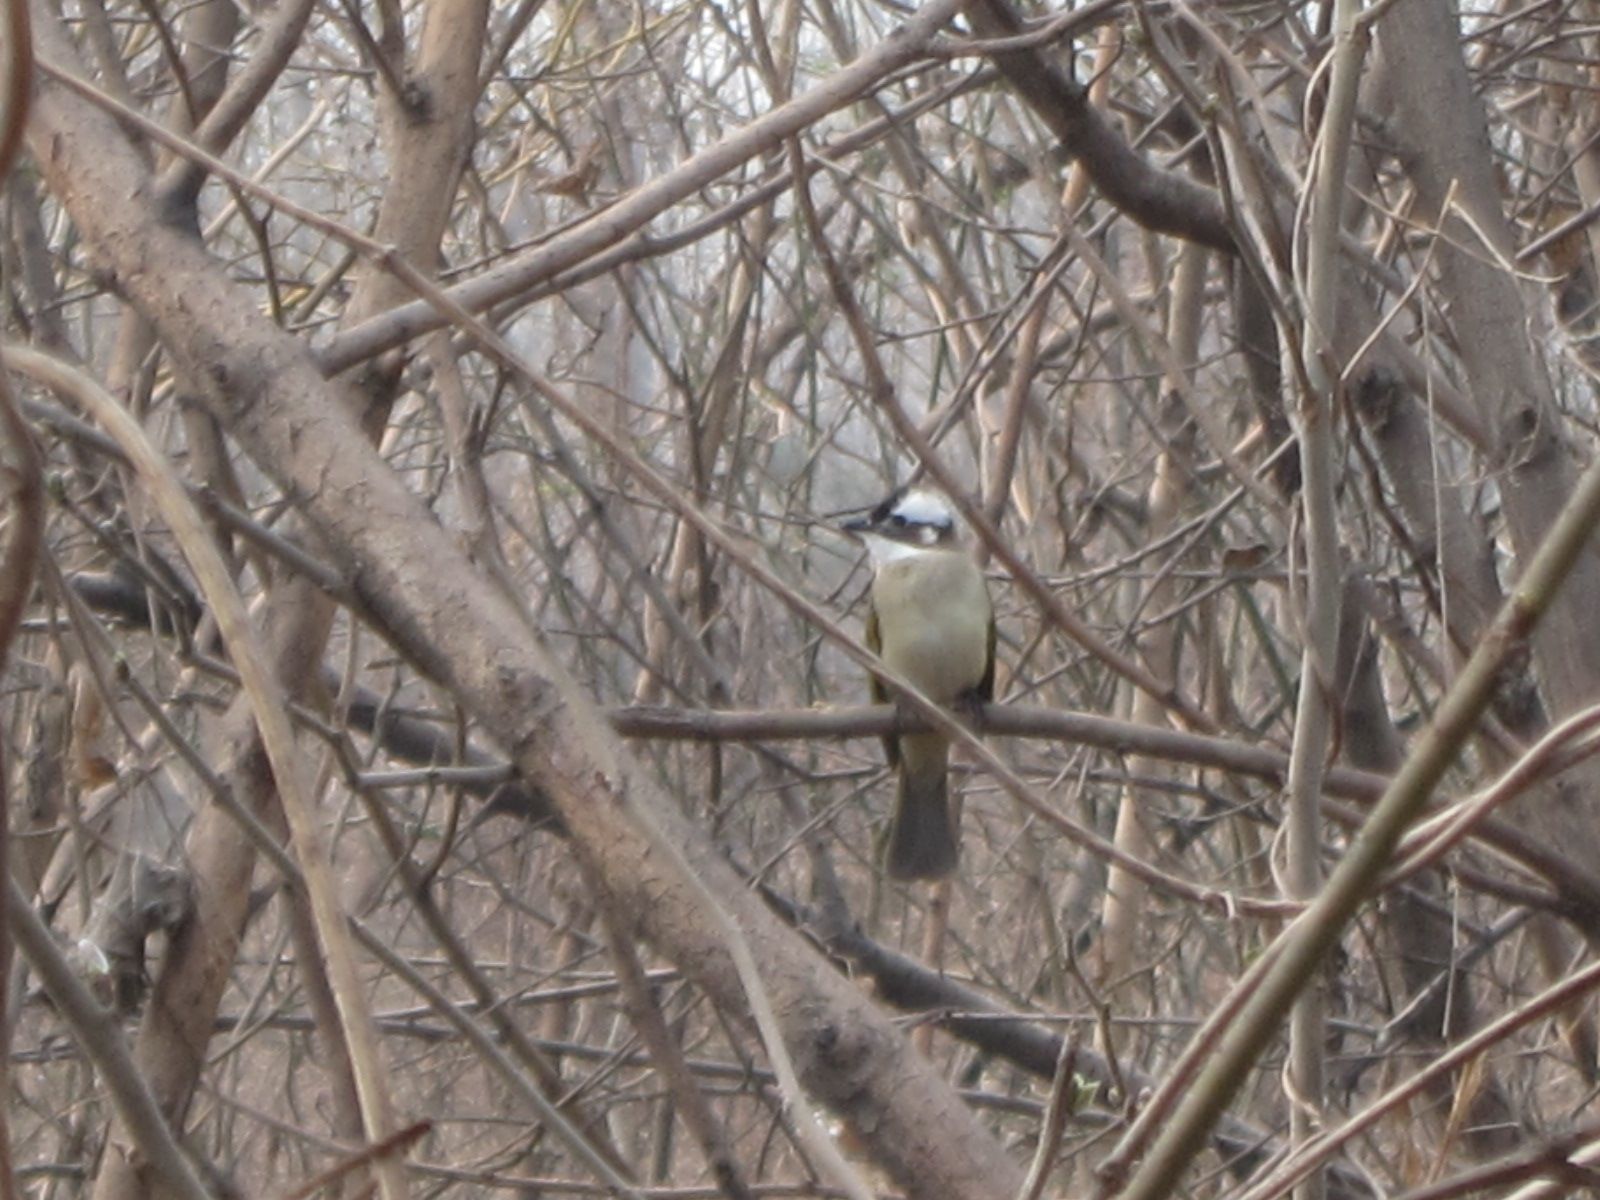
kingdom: Animalia
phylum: Chordata
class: Aves
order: Passeriformes
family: Pycnonotidae
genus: Pycnonotus
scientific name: Pycnonotus sinensis
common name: Light-vented bulbul
